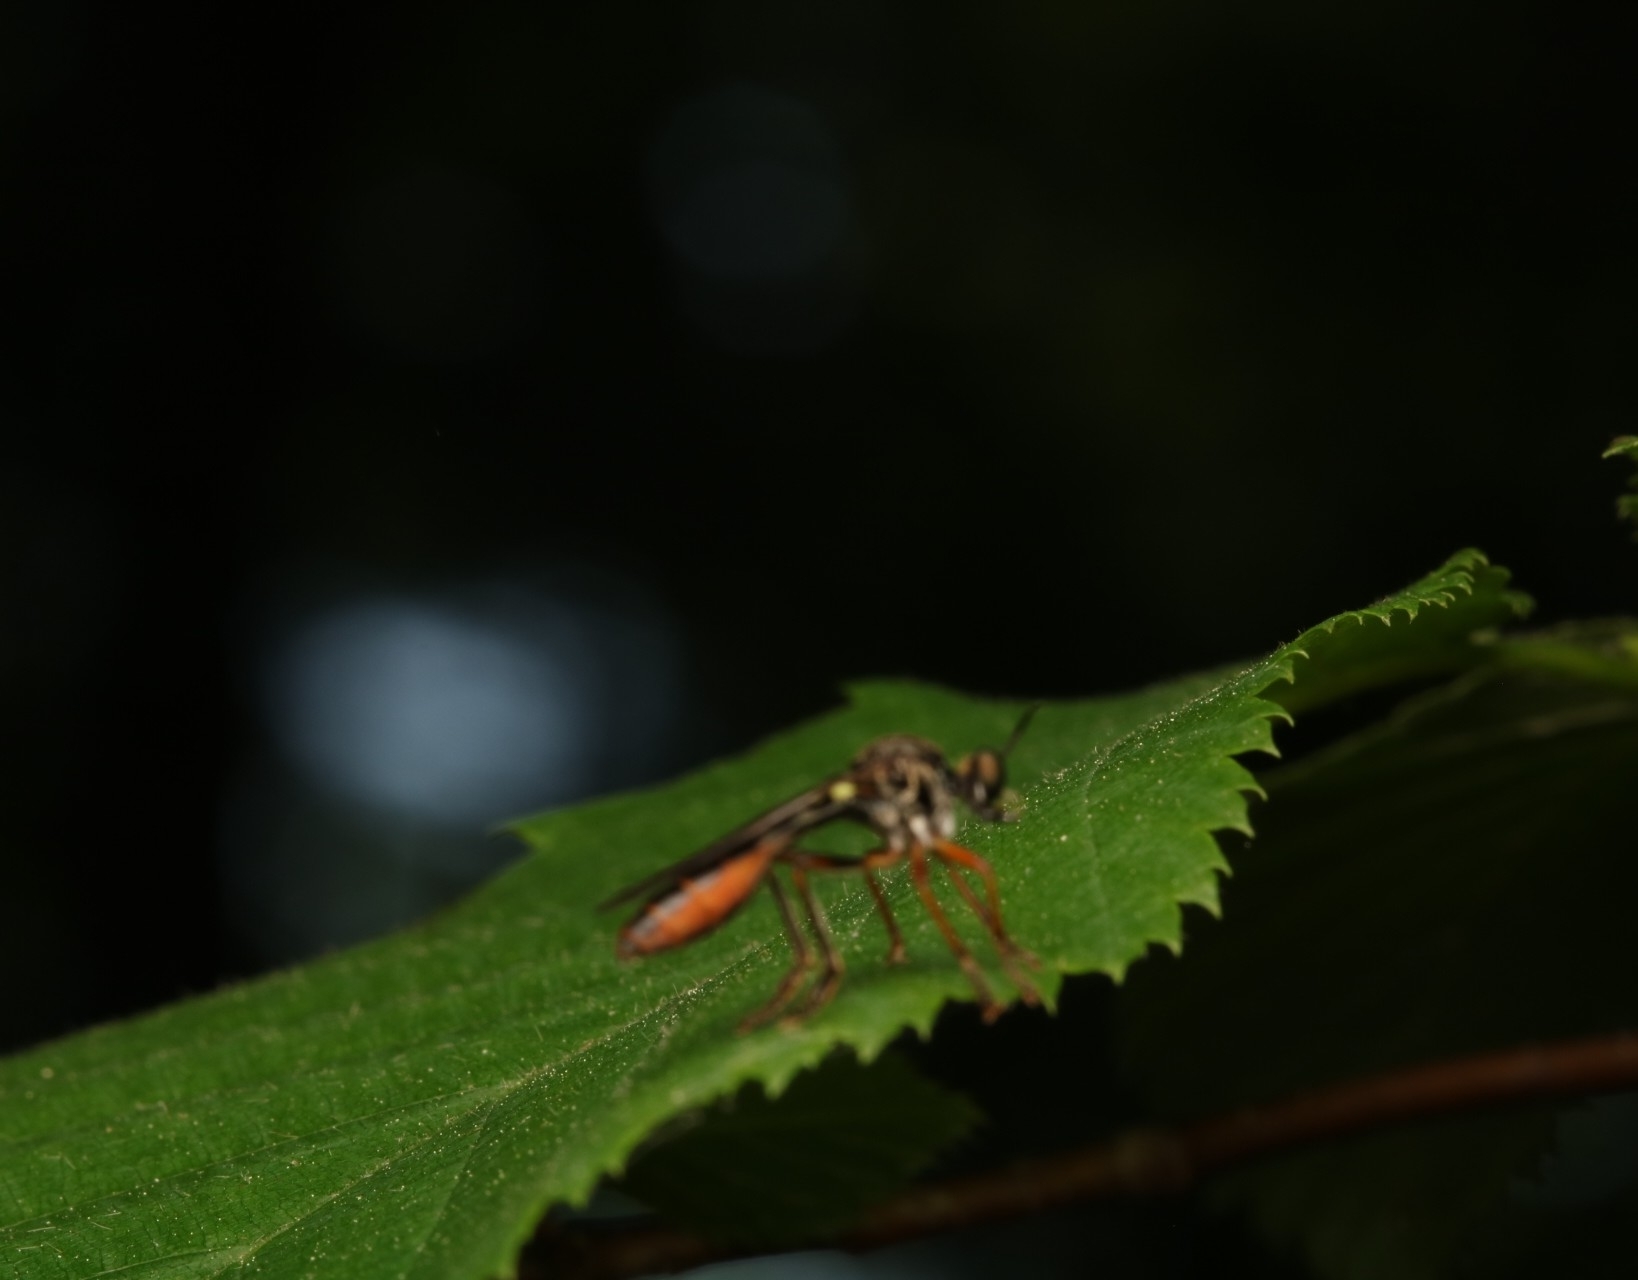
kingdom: Animalia
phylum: Arthropoda
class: Insecta
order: Diptera
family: Asilidae
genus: Dioctria
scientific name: Dioctria hyalipennis
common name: Stripe-legged robberfly
